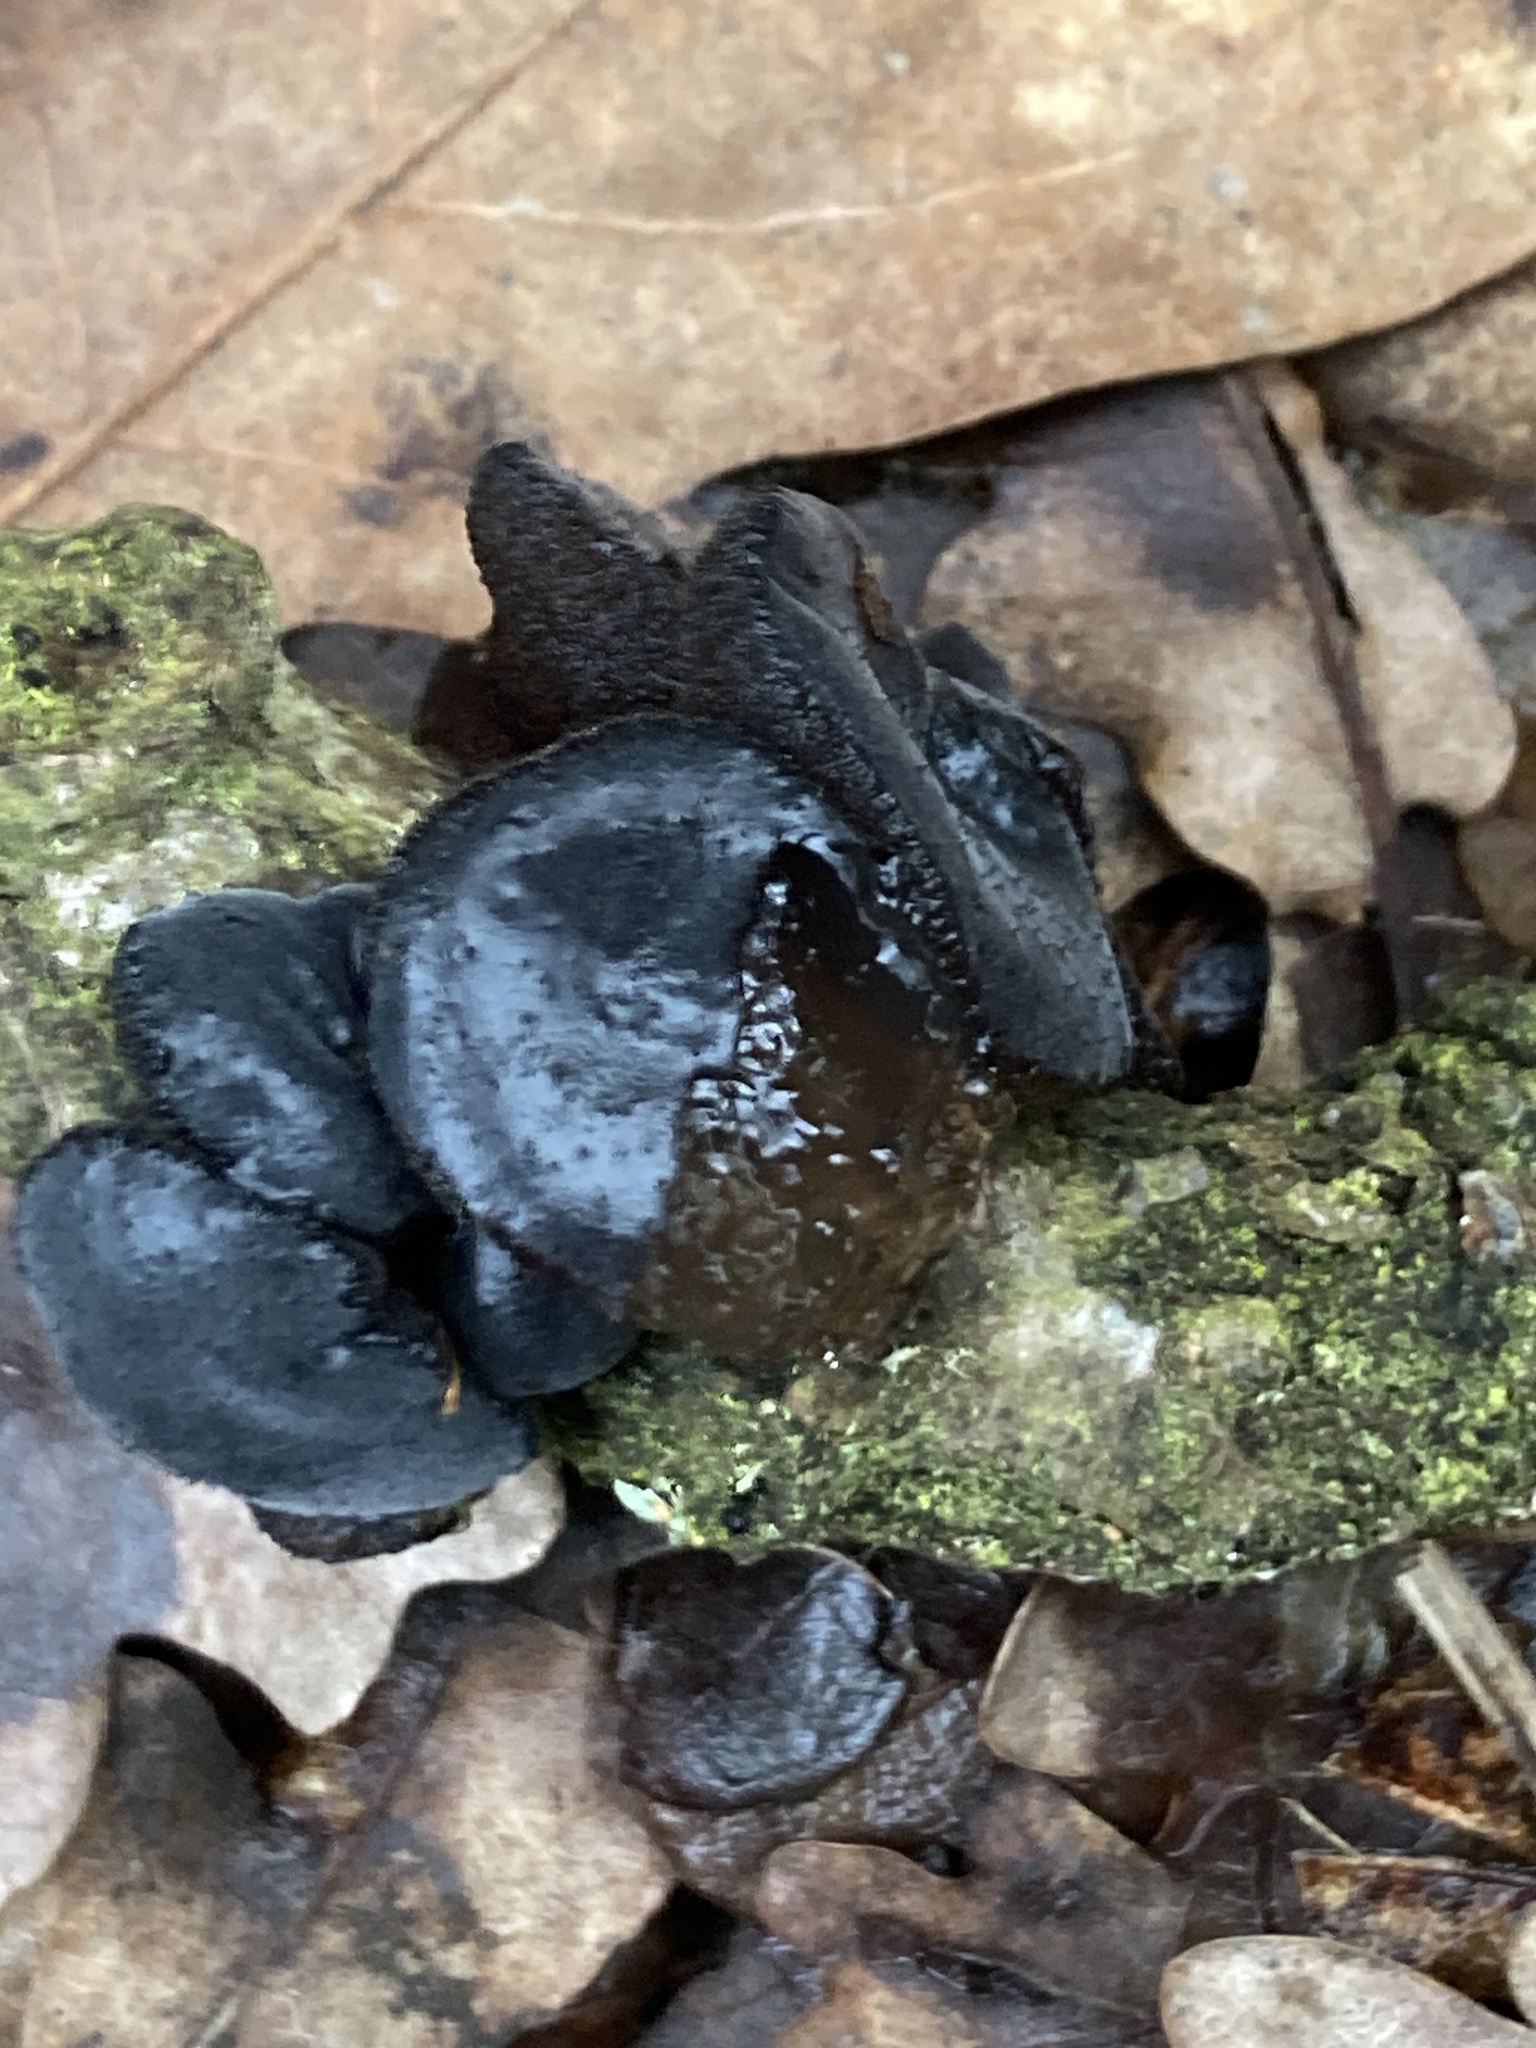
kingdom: Fungi
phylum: Basidiomycota
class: Agaricomycetes
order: Auriculariales
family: Auriculariaceae
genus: Exidia
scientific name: Exidia glandulosa
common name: Witches' butter
